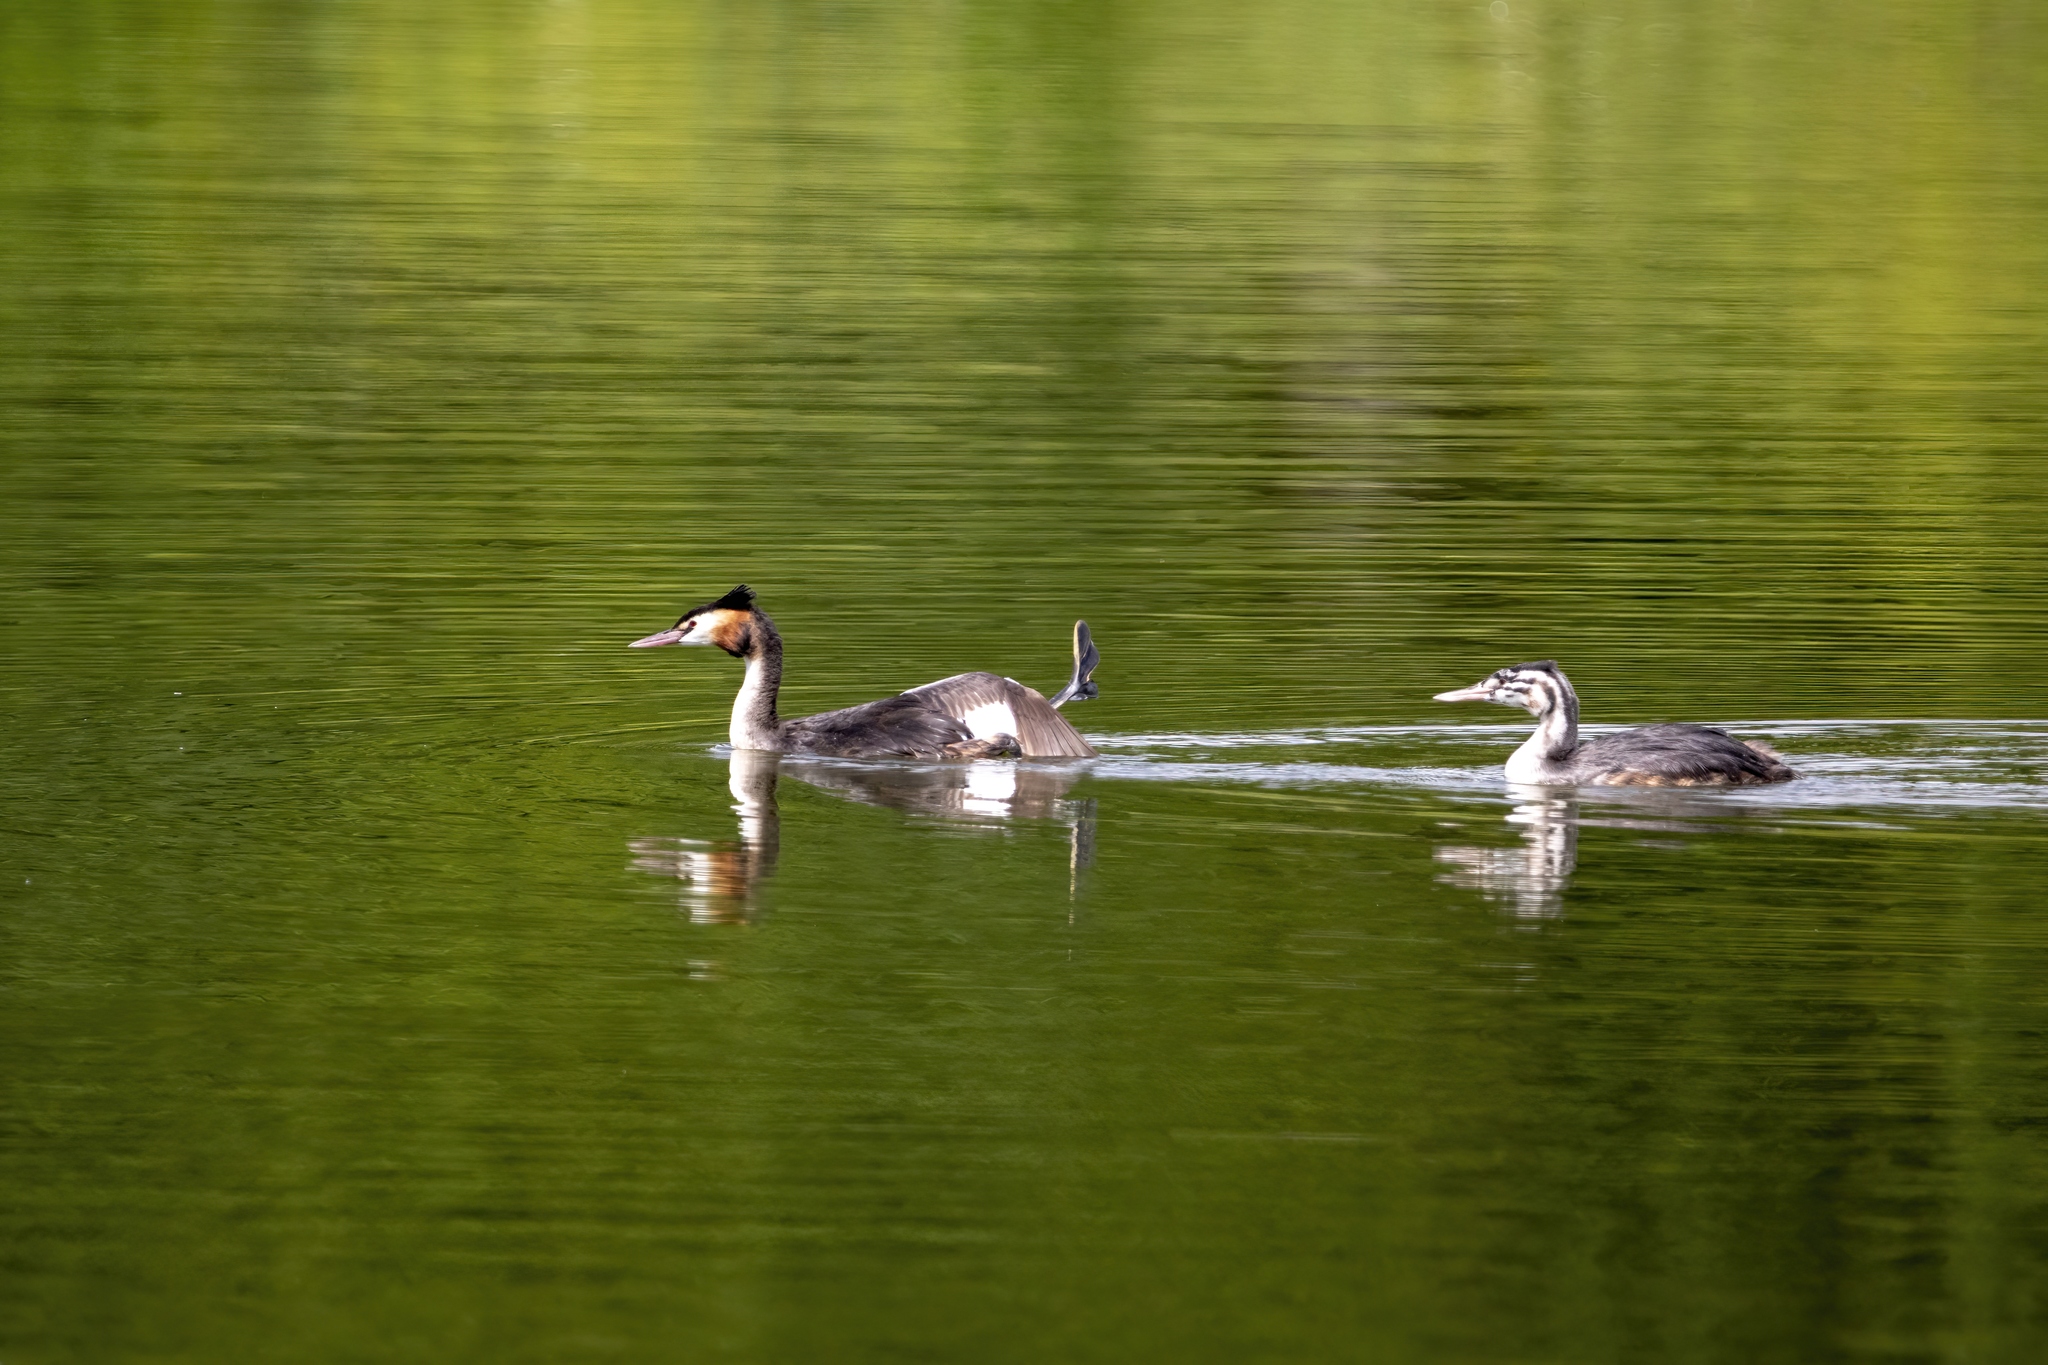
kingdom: Animalia
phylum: Chordata
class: Aves
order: Podicipediformes
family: Podicipedidae
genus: Podiceps
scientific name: Podiceps cristatus
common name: Great crested grebe
